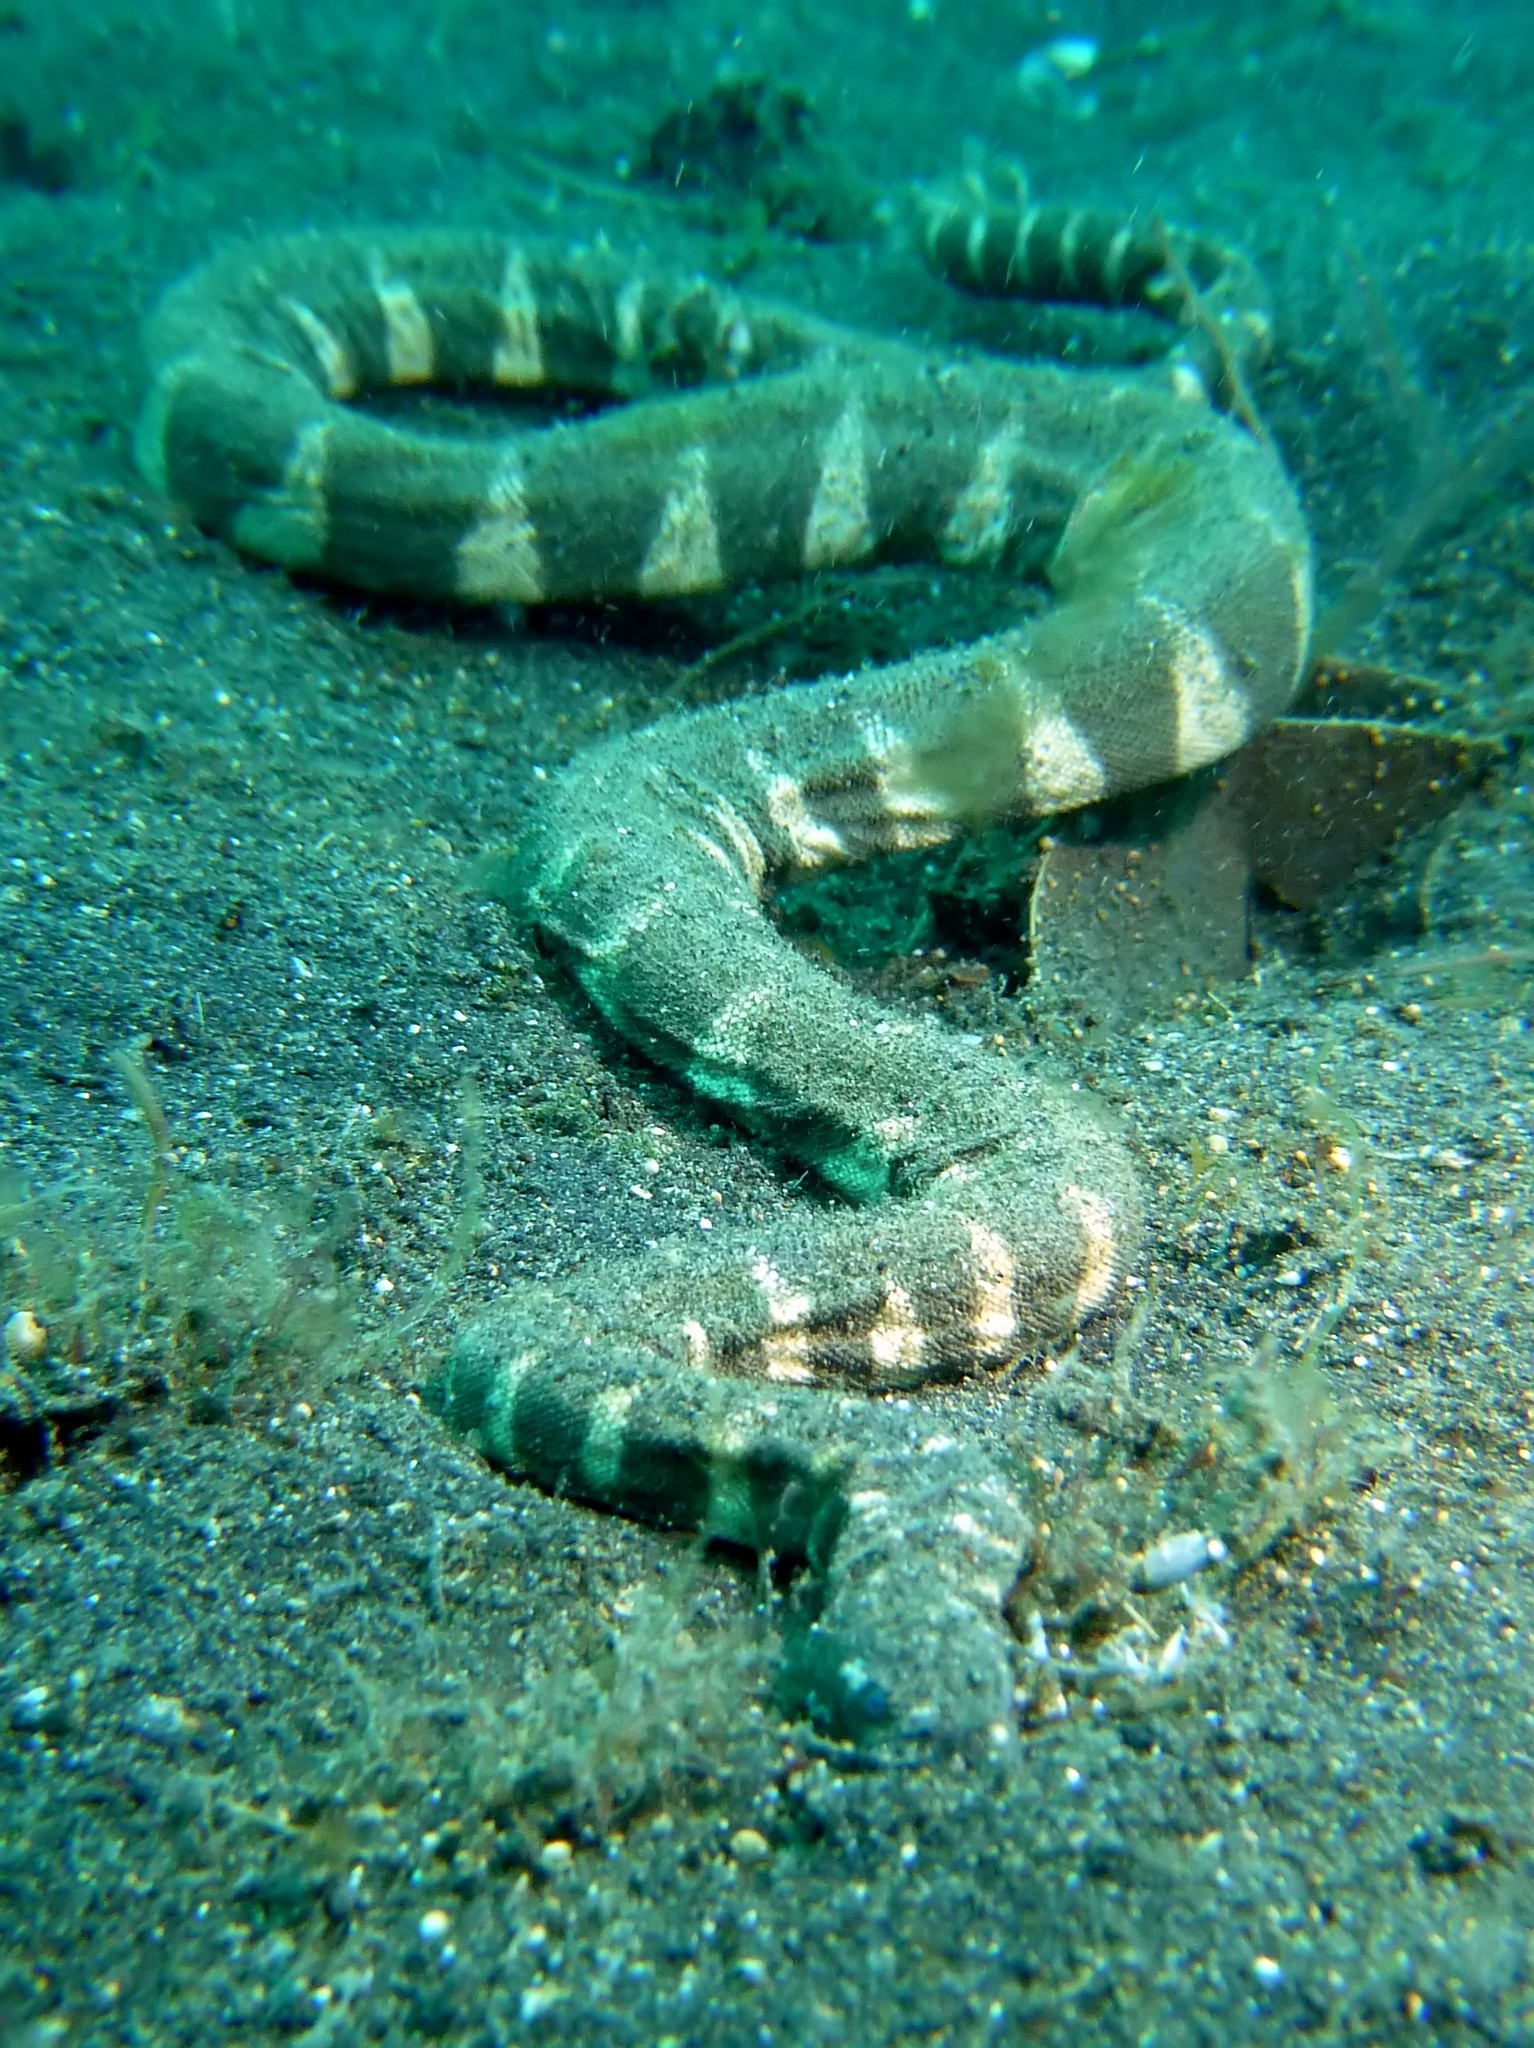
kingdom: Animalia
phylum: Chordata
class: Squamata
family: Acrochordidae
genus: Acrochordus
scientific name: Acrochordus granulatus
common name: Little filesnake
